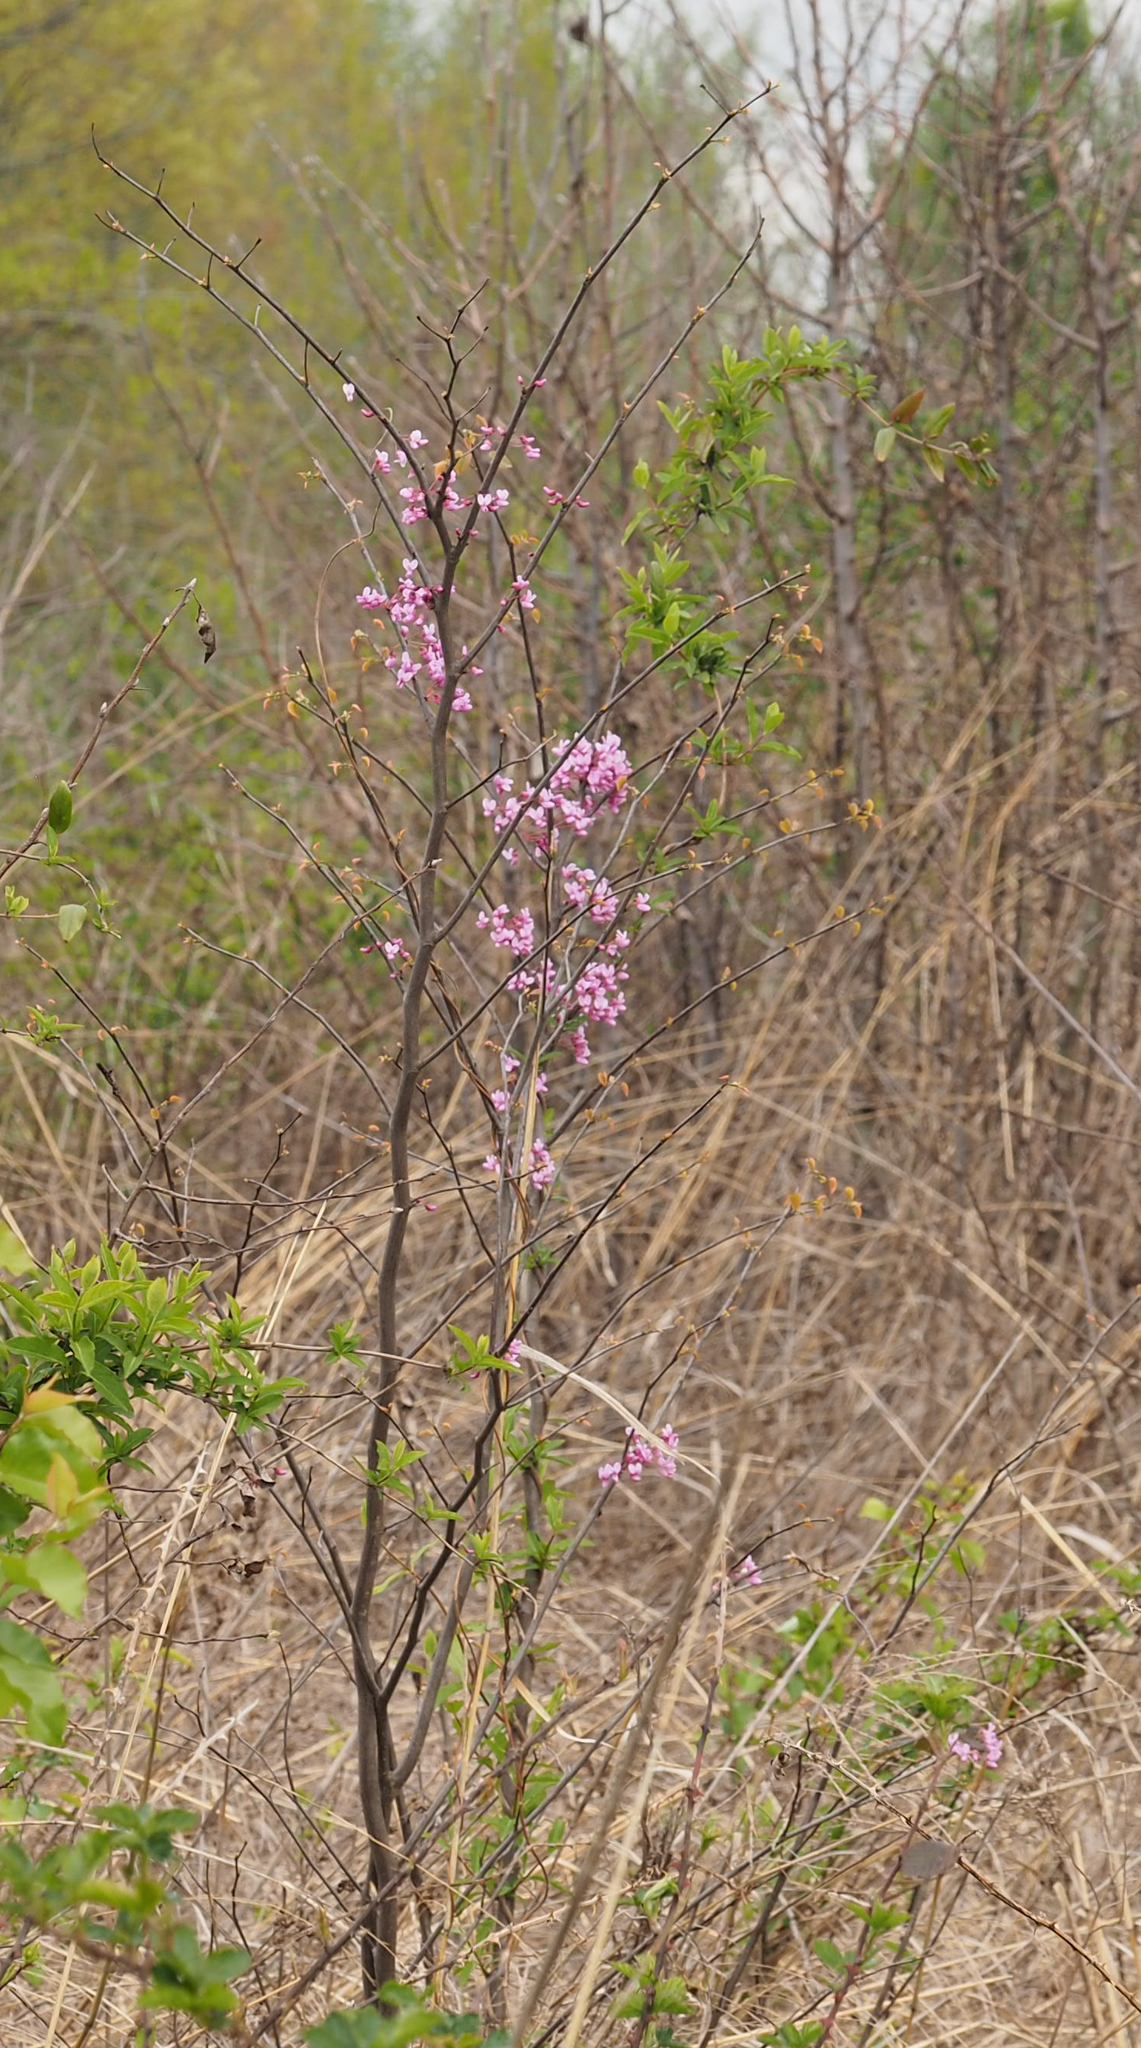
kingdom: Plantae
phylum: Tracheophyta
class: Magnoliopsida
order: Fabales
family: Fabaceae
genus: Cercis
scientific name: Cercis canadensis
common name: Eastern redbud
